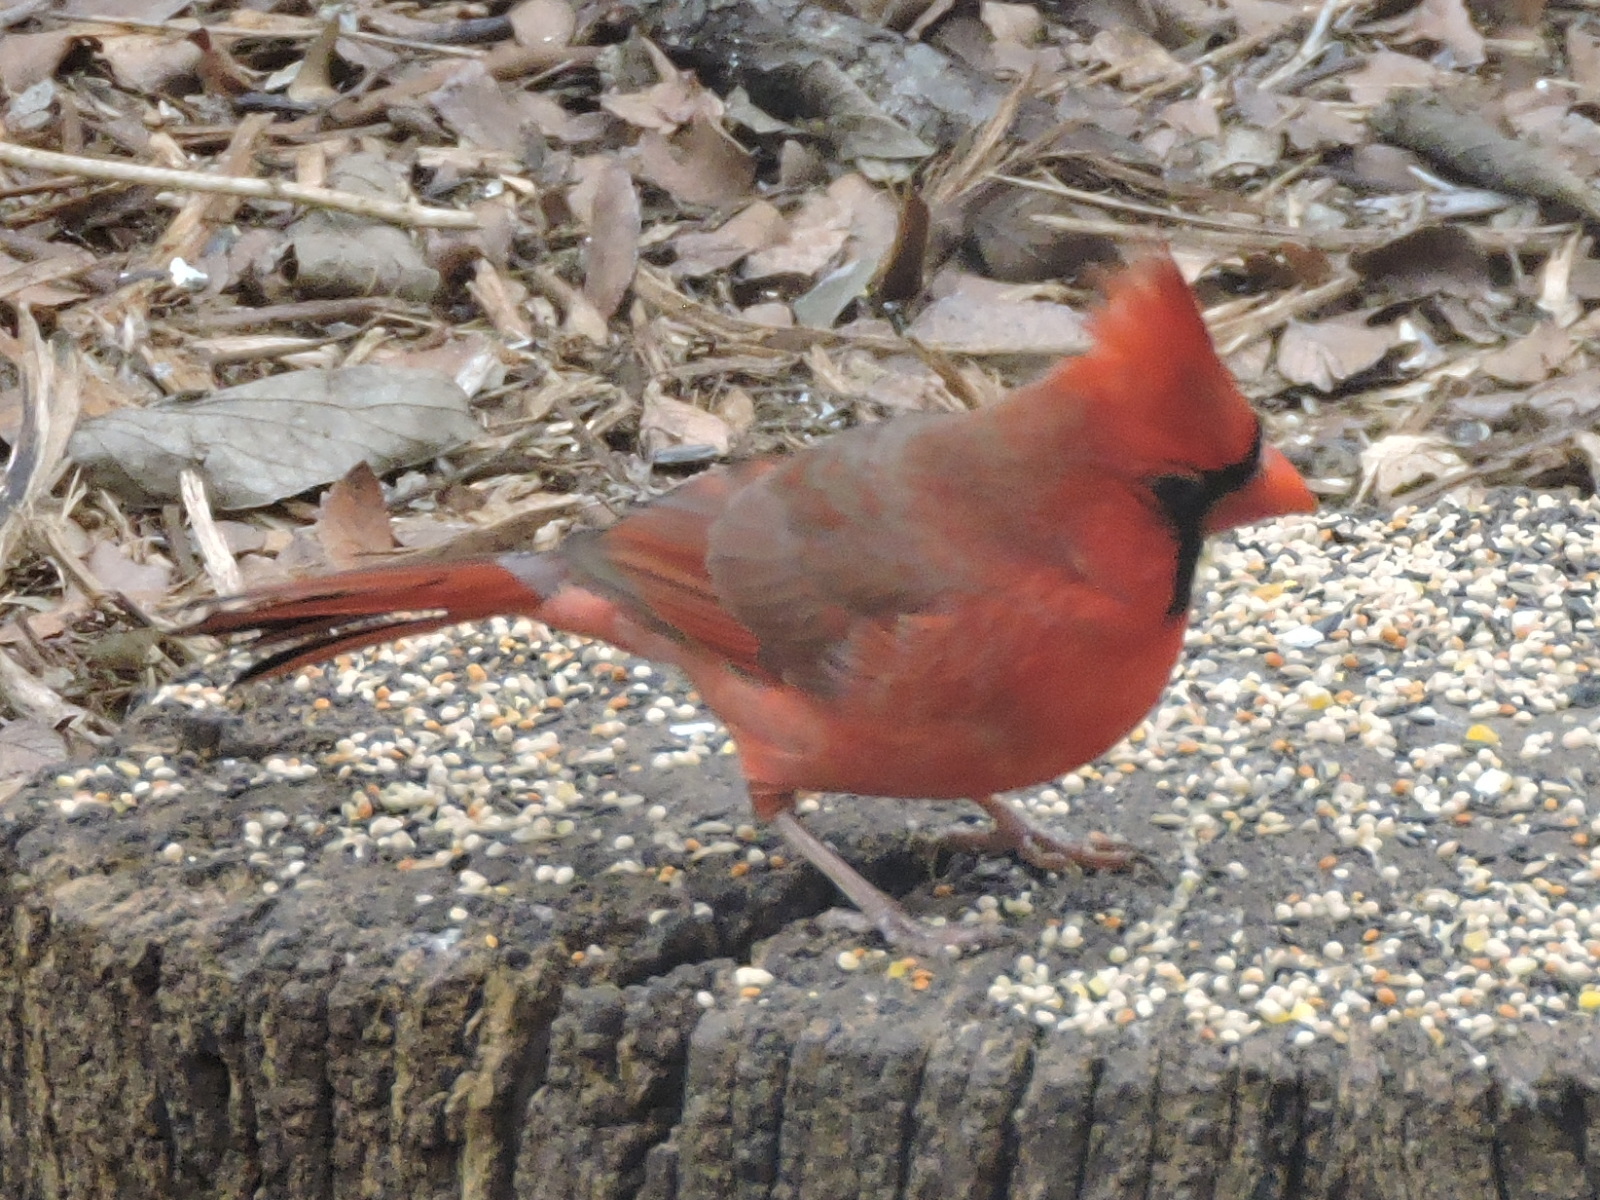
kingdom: Animalia
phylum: Chordata
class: Aves
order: Passeriformes
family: Cardinalidae
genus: Cardinalis
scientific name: Cardinalis cardinalis
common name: Northern cardinal
